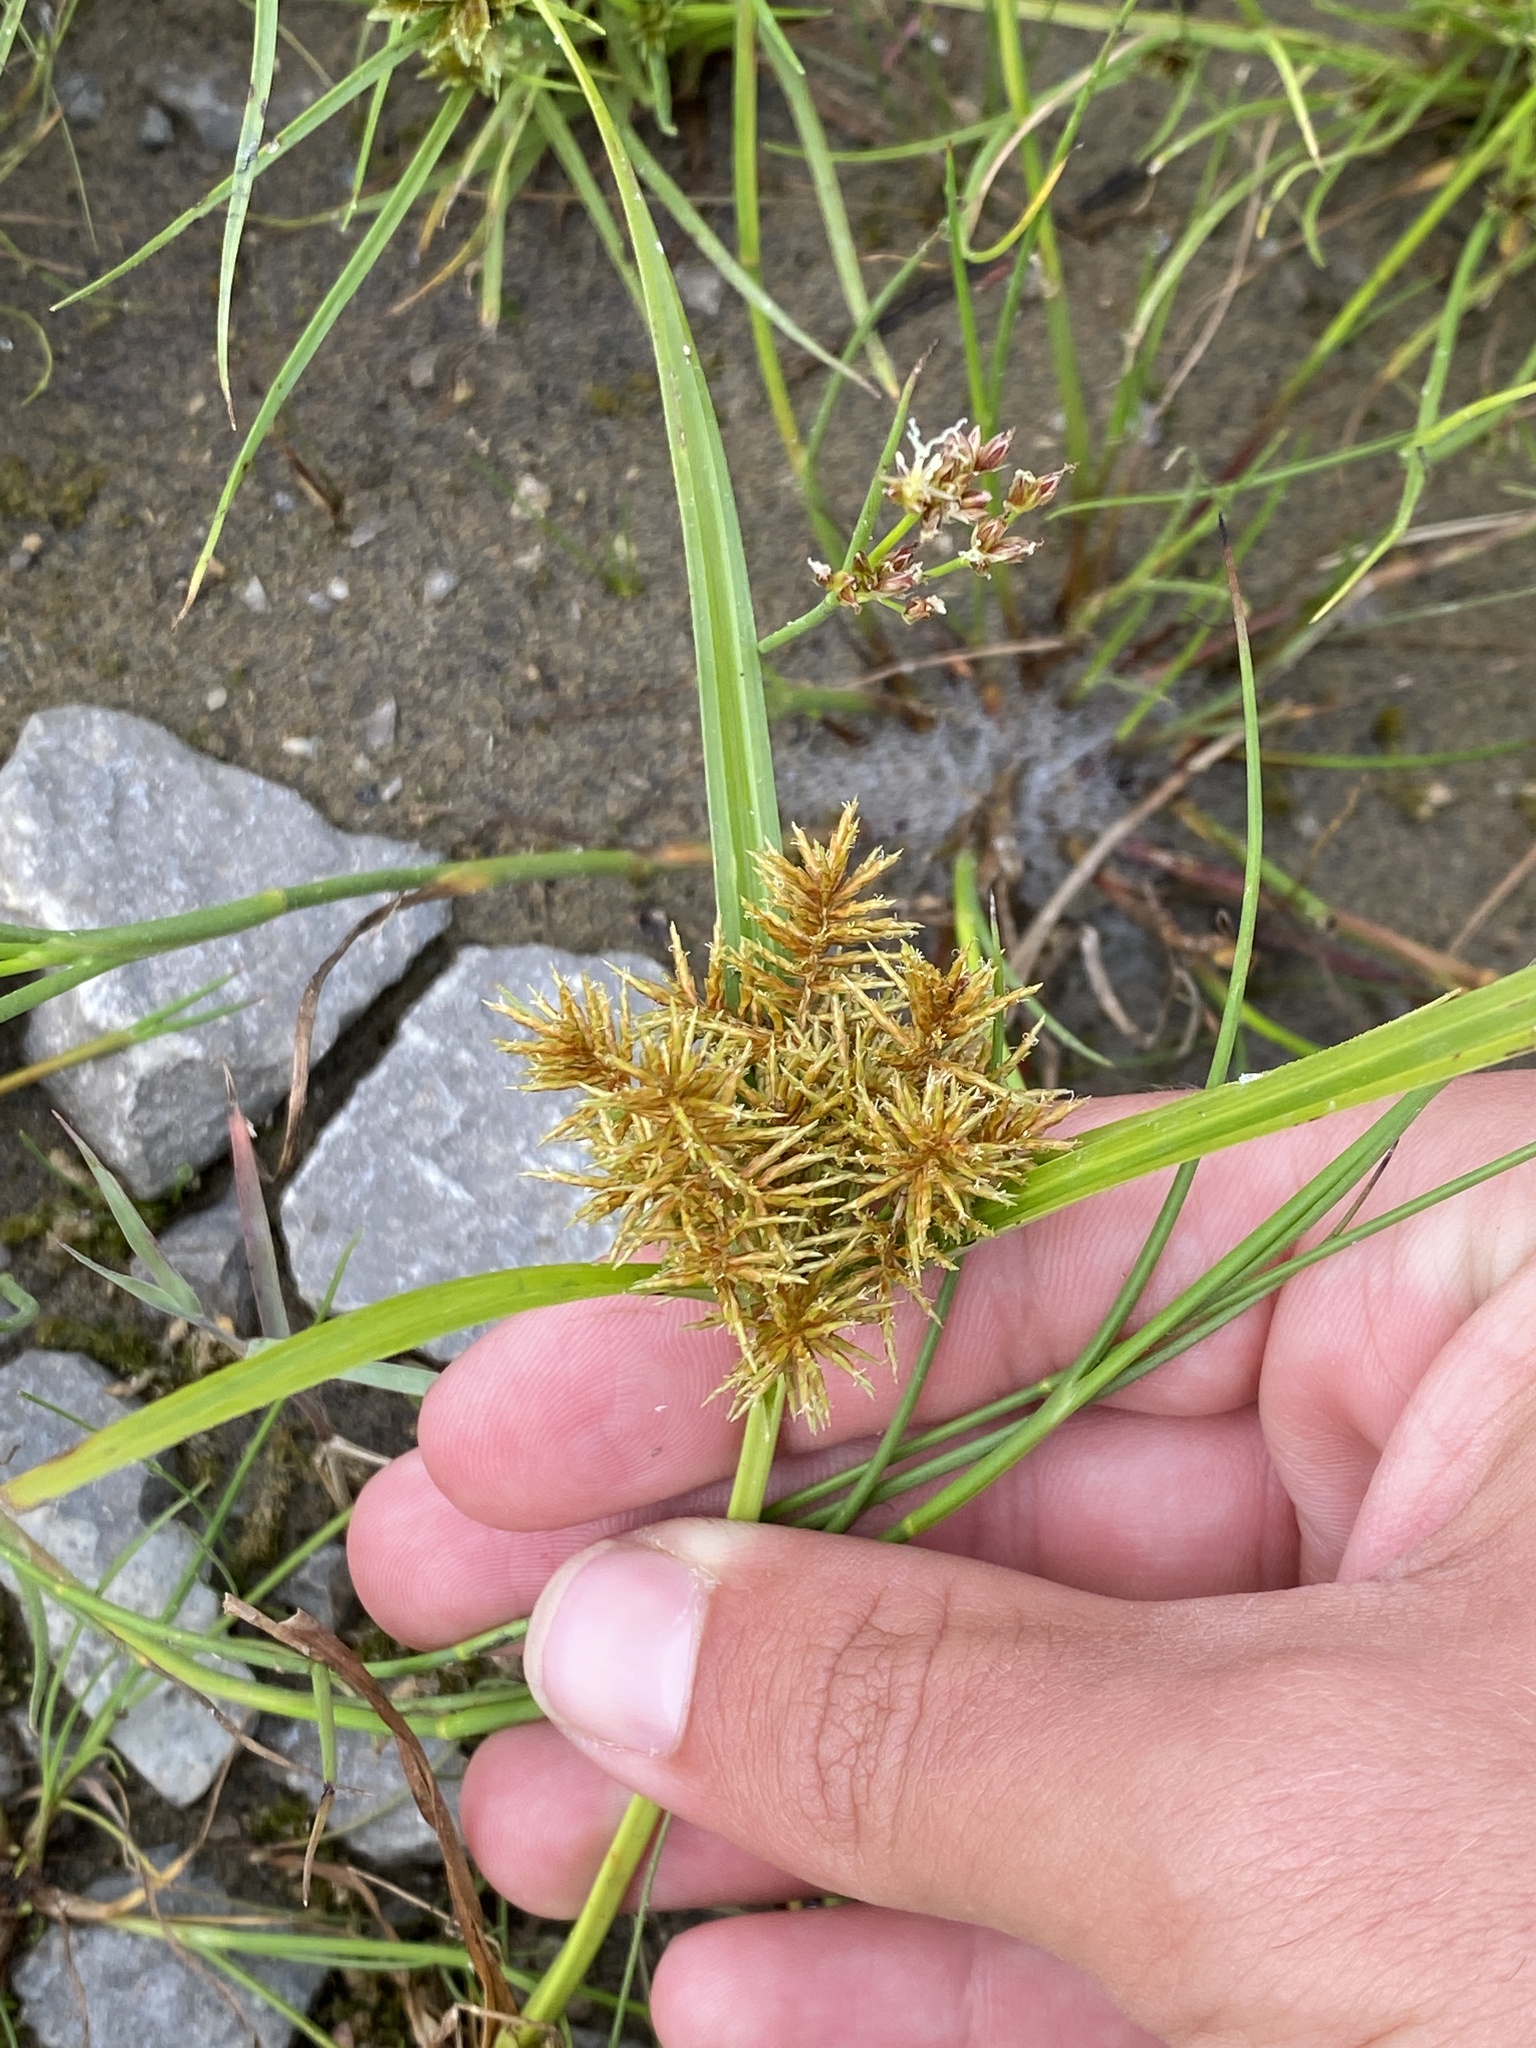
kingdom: Plantae
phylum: Tracheophyta
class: Liliopsida
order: Poales
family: Cyperaceae
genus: Cyperus
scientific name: Cyperus odoratus
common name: Fragrant flatsedge
